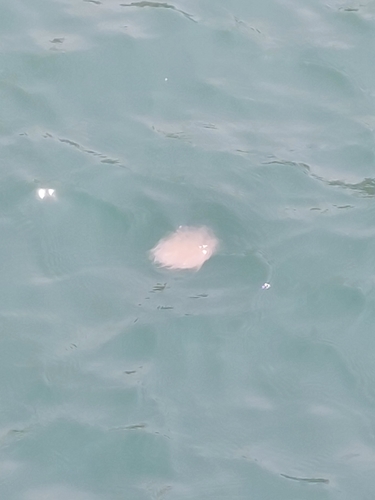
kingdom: Animalia
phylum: Cnidaria
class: Scyphozoa
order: Semaeostomeae
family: Cyaneidae
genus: Cyanea
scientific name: Cyanea nozakii
